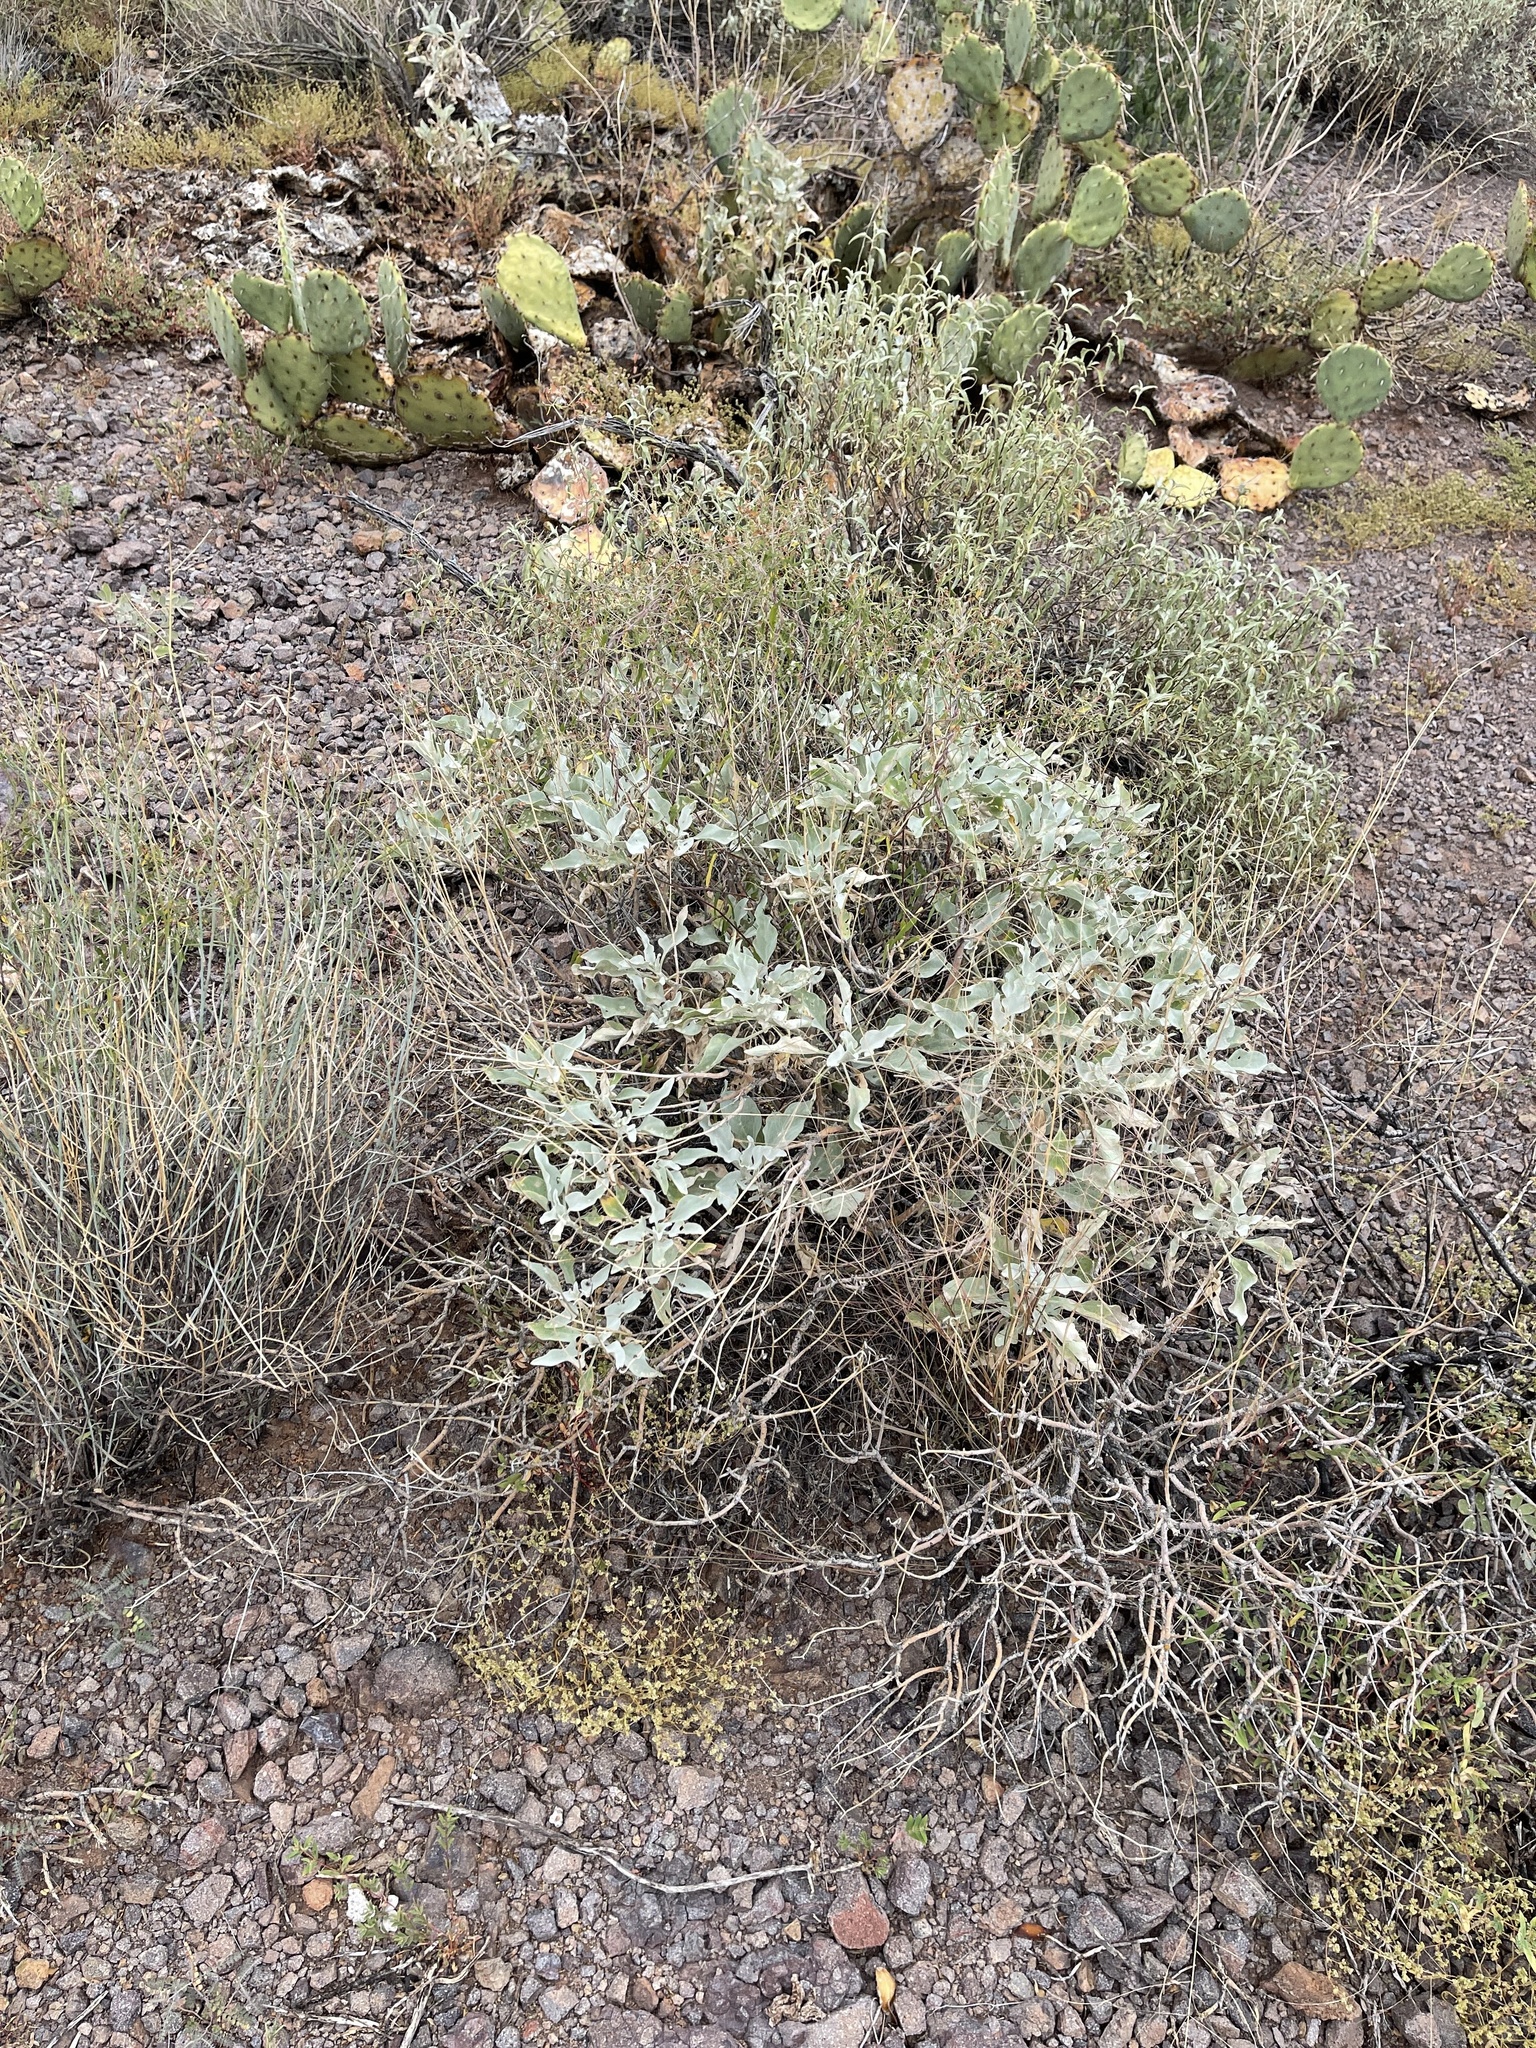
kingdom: Plantae
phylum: Tracheophyta
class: Magnoliopsida
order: Asterales
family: Asteraceae
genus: Encelia
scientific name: Encelia farinosa
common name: Brittlebush
